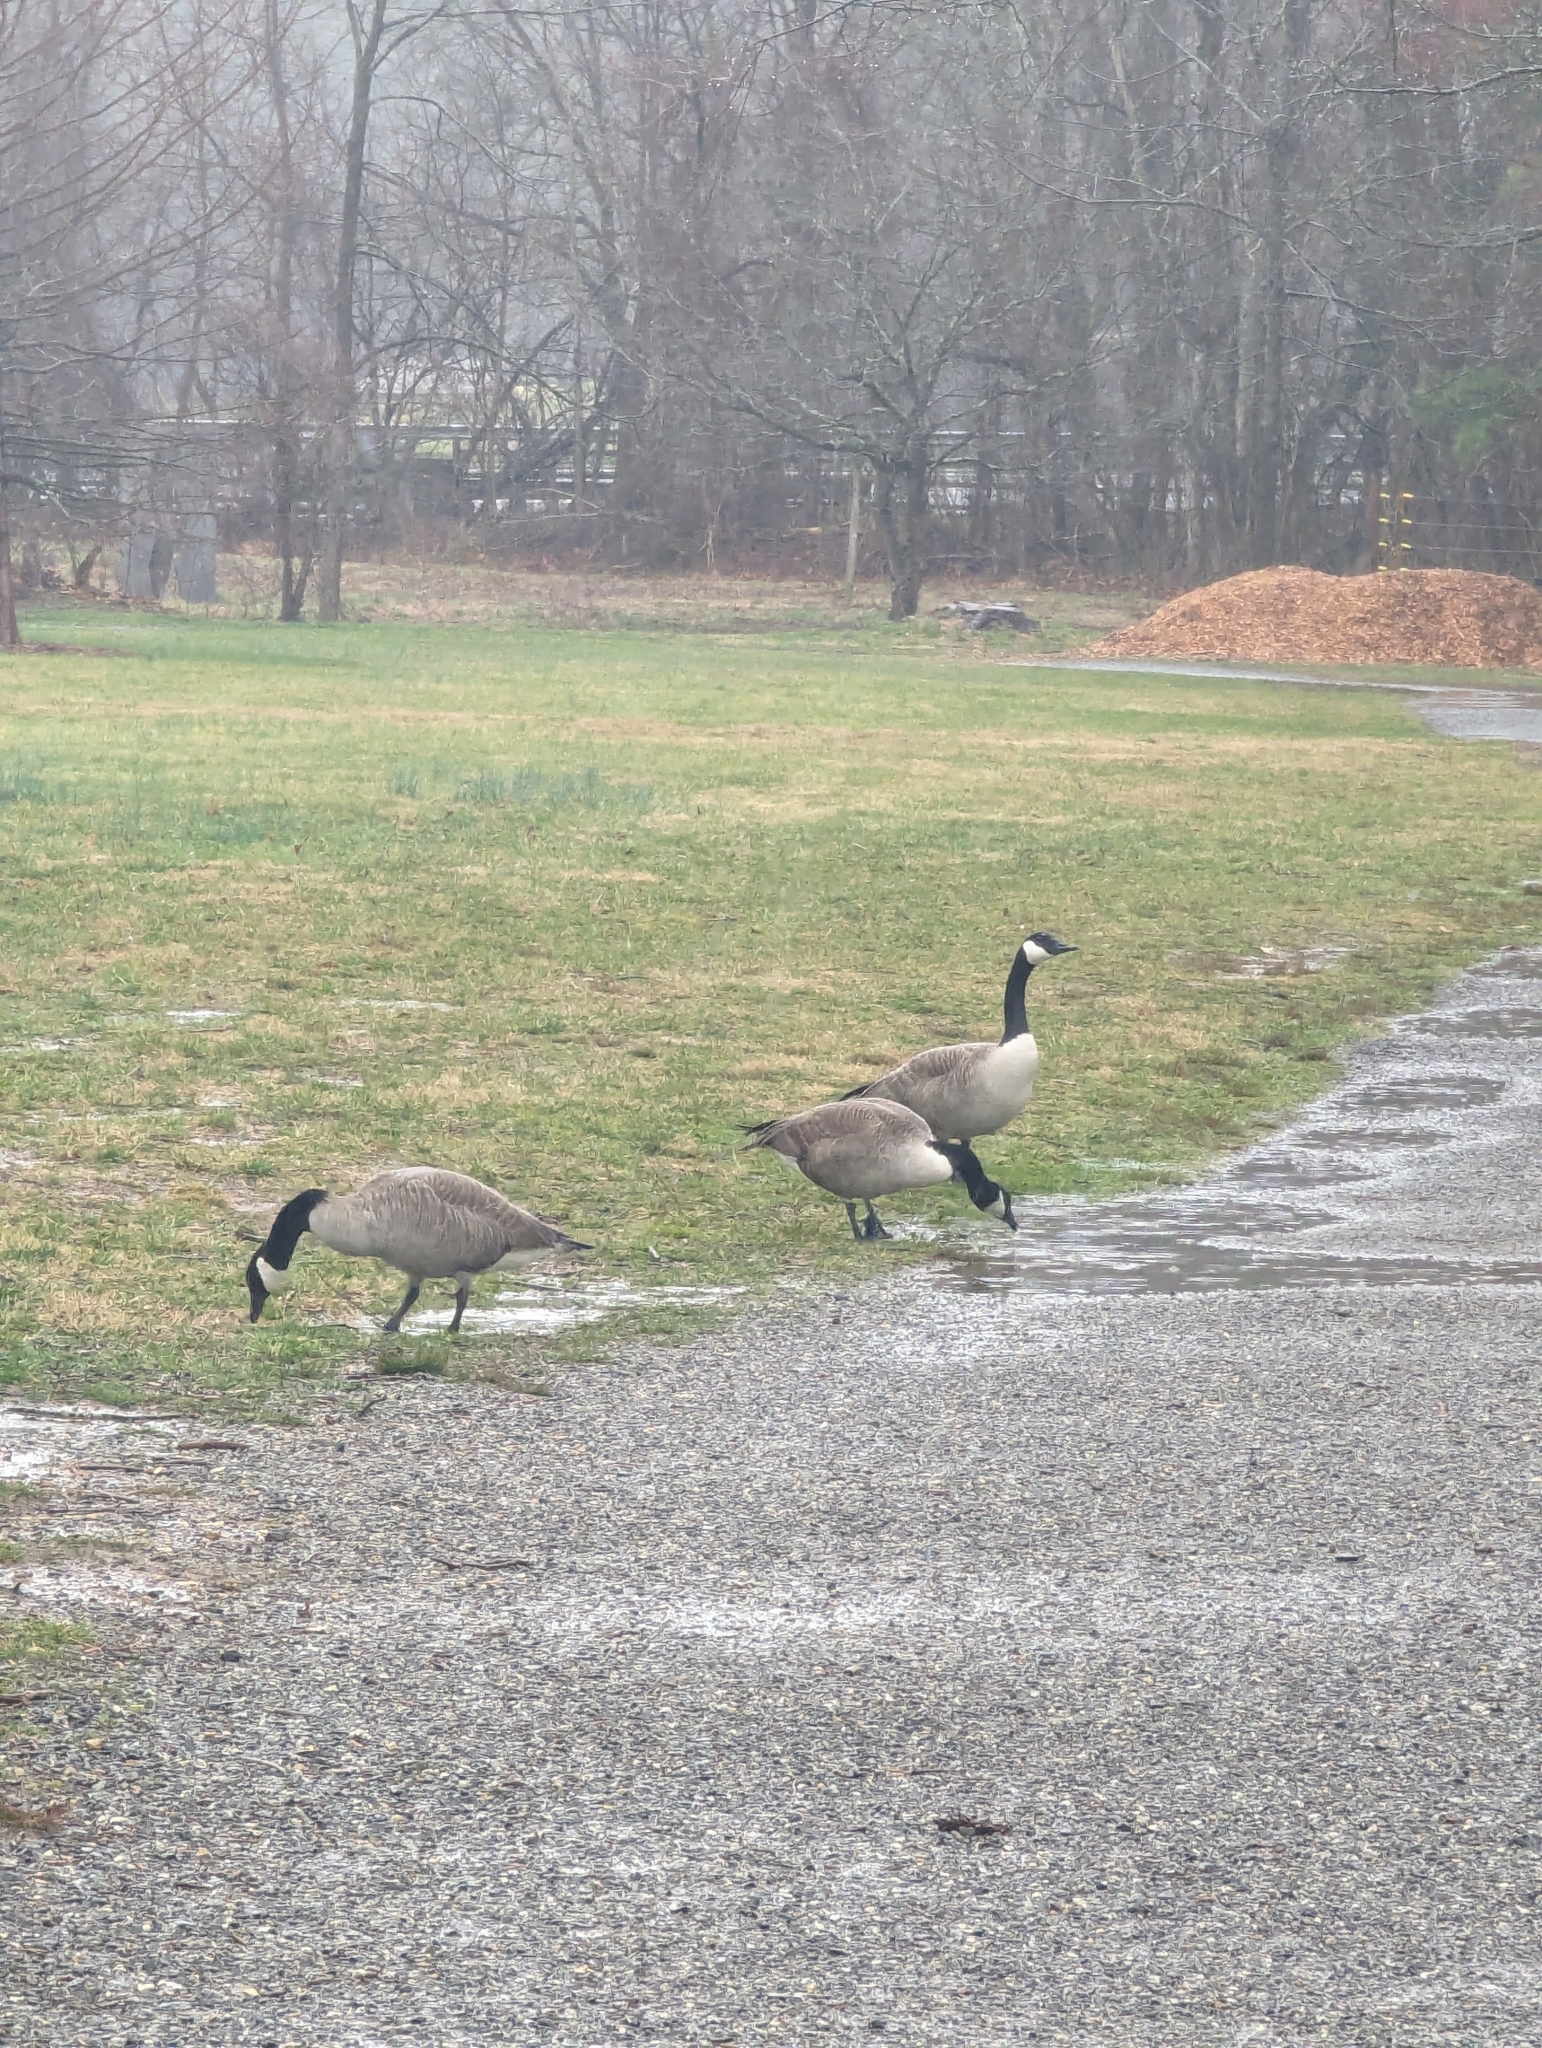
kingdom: Animalia
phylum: Chordata
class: Aves
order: Anseriformes
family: Anatidae
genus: Branta
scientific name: Branta canadensis
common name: Canada goose
